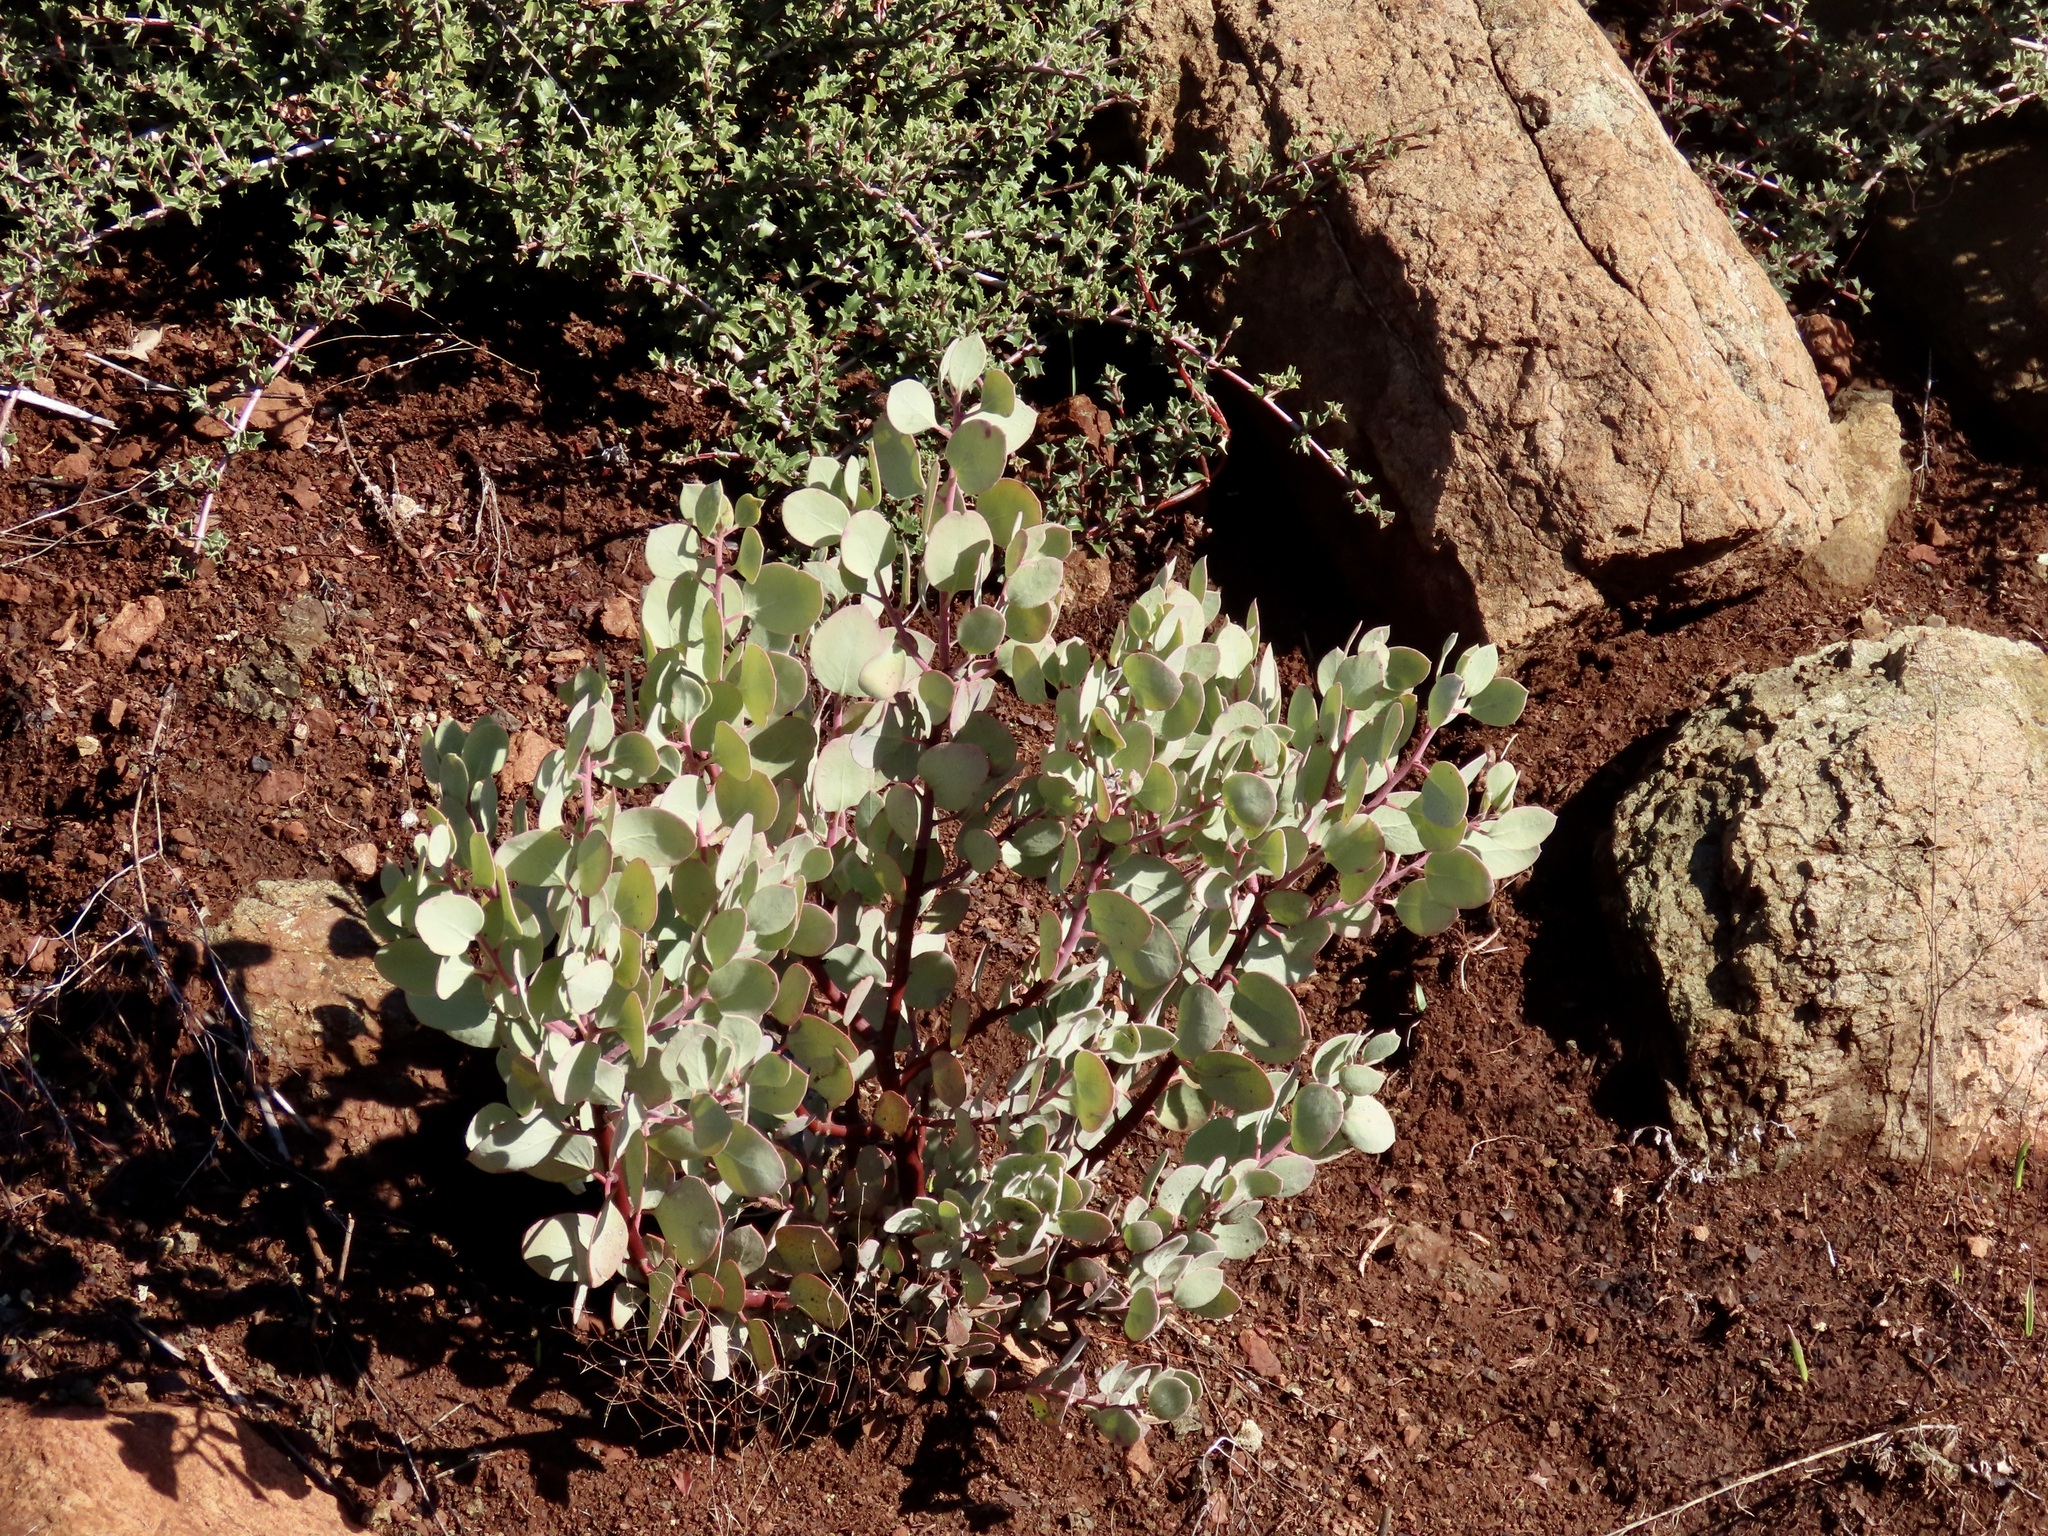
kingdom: Plantae
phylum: Tracheophyta
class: Magnoliopsida
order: Ericales
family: Ericaceae
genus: Arctostaphylos
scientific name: Arctostaphylos viscida
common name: White-leaf manzanita
